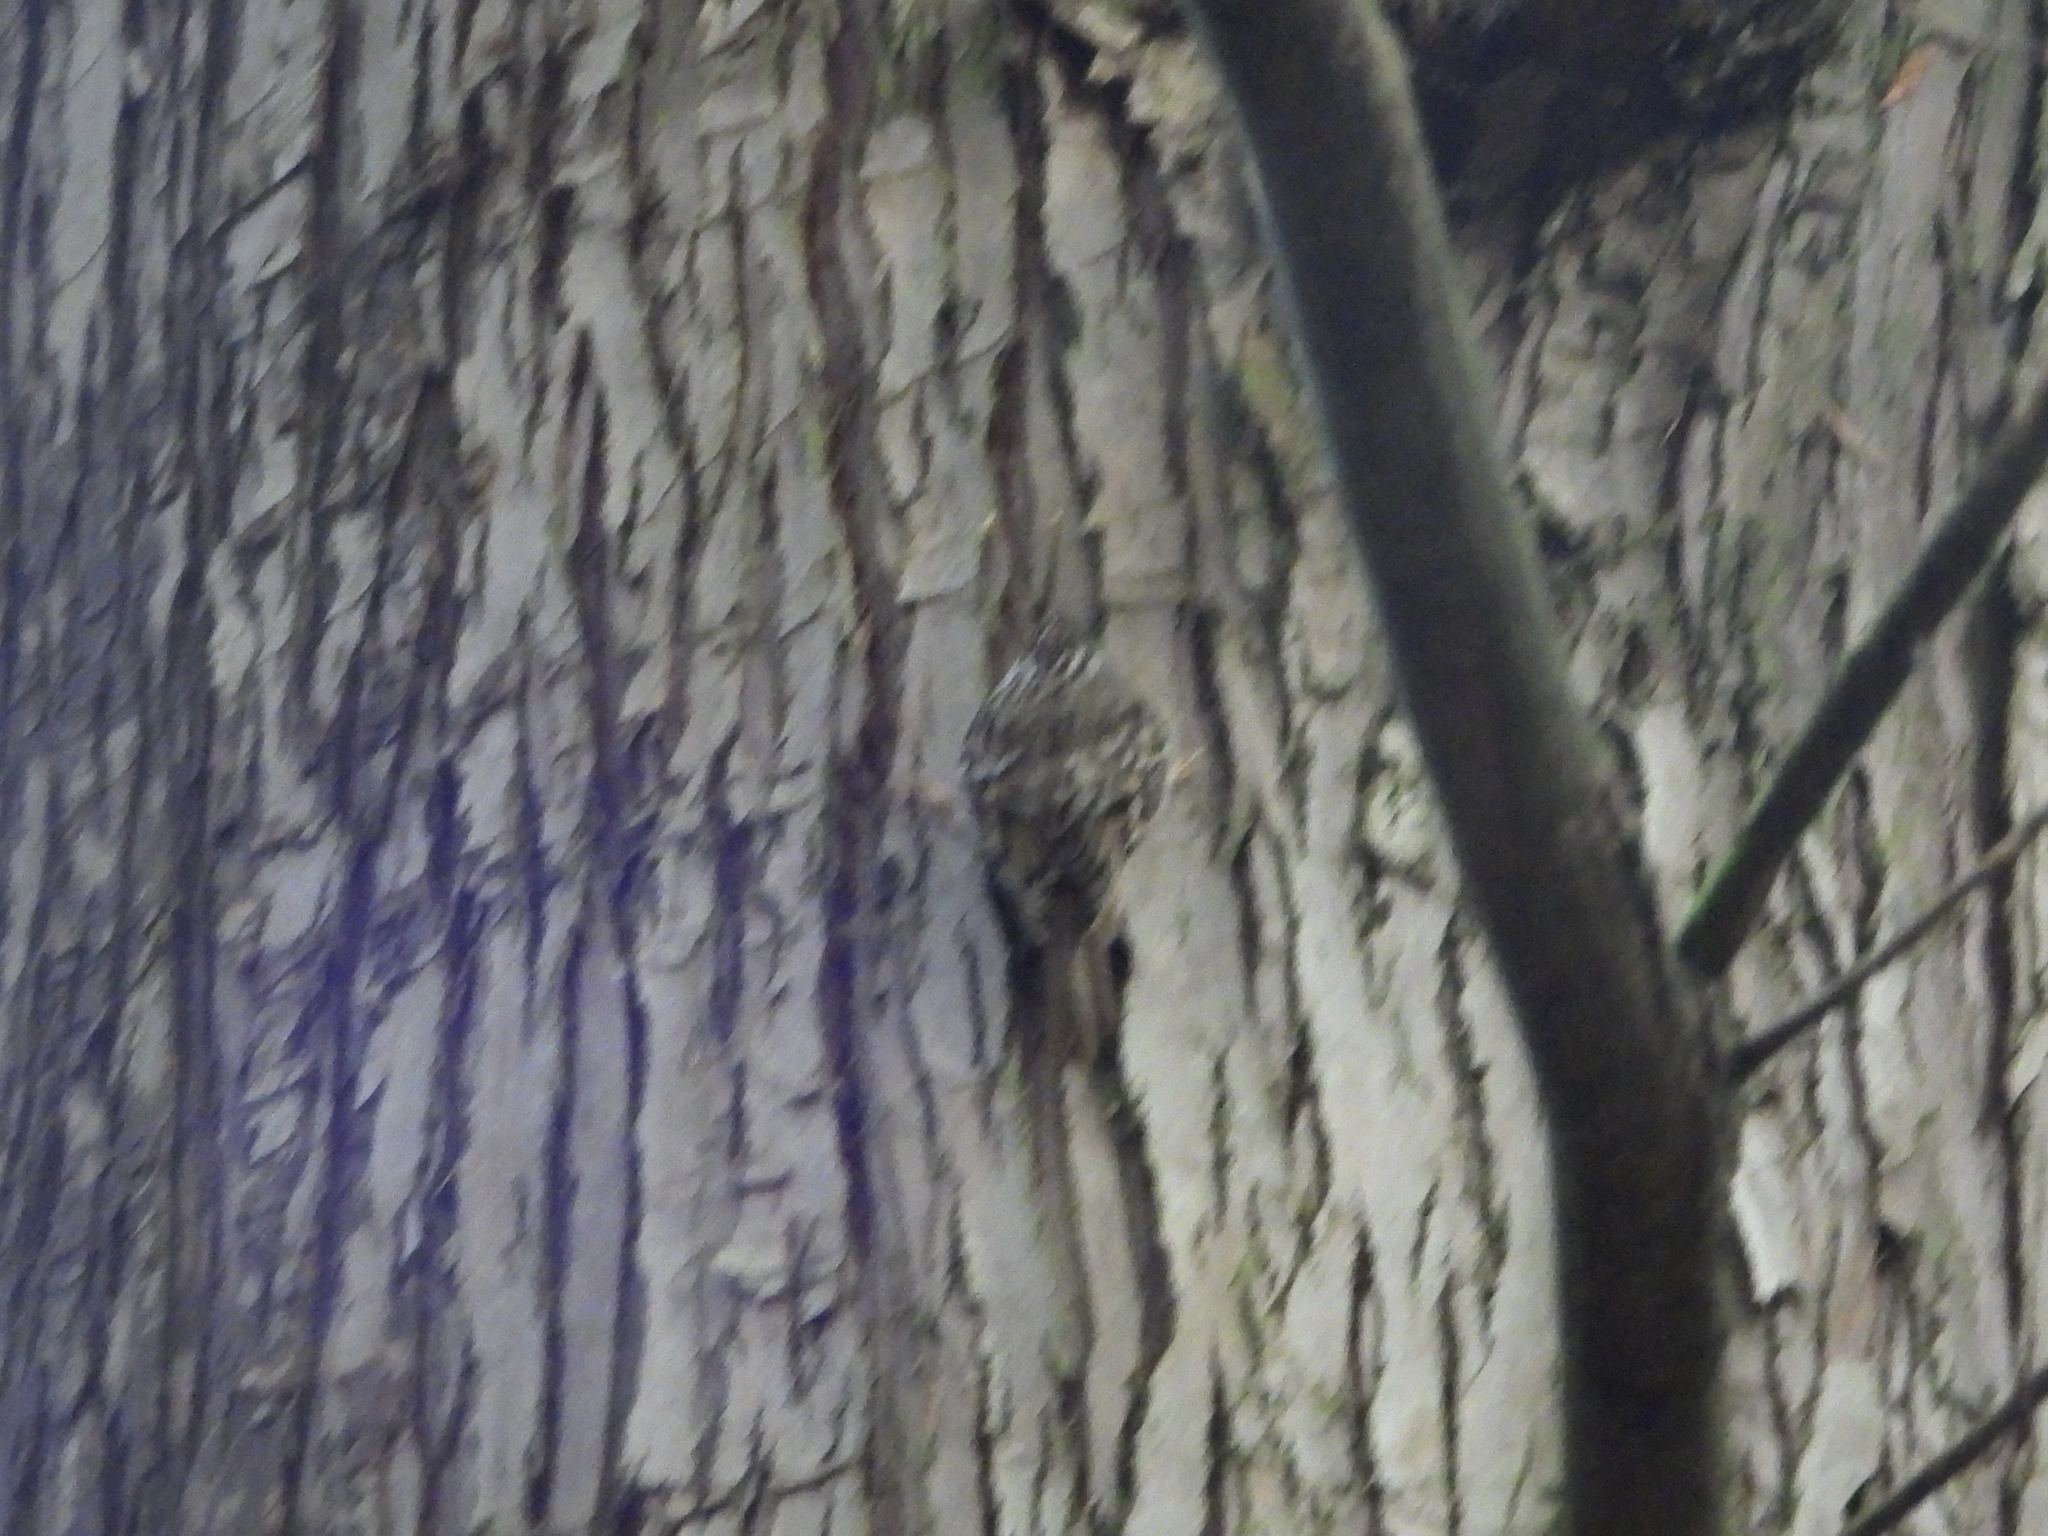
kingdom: Animalia
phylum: Chordata
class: Aves
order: Passeriformes
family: Certhiidae
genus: Certhia
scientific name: Certhia americana
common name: Brown creeper
